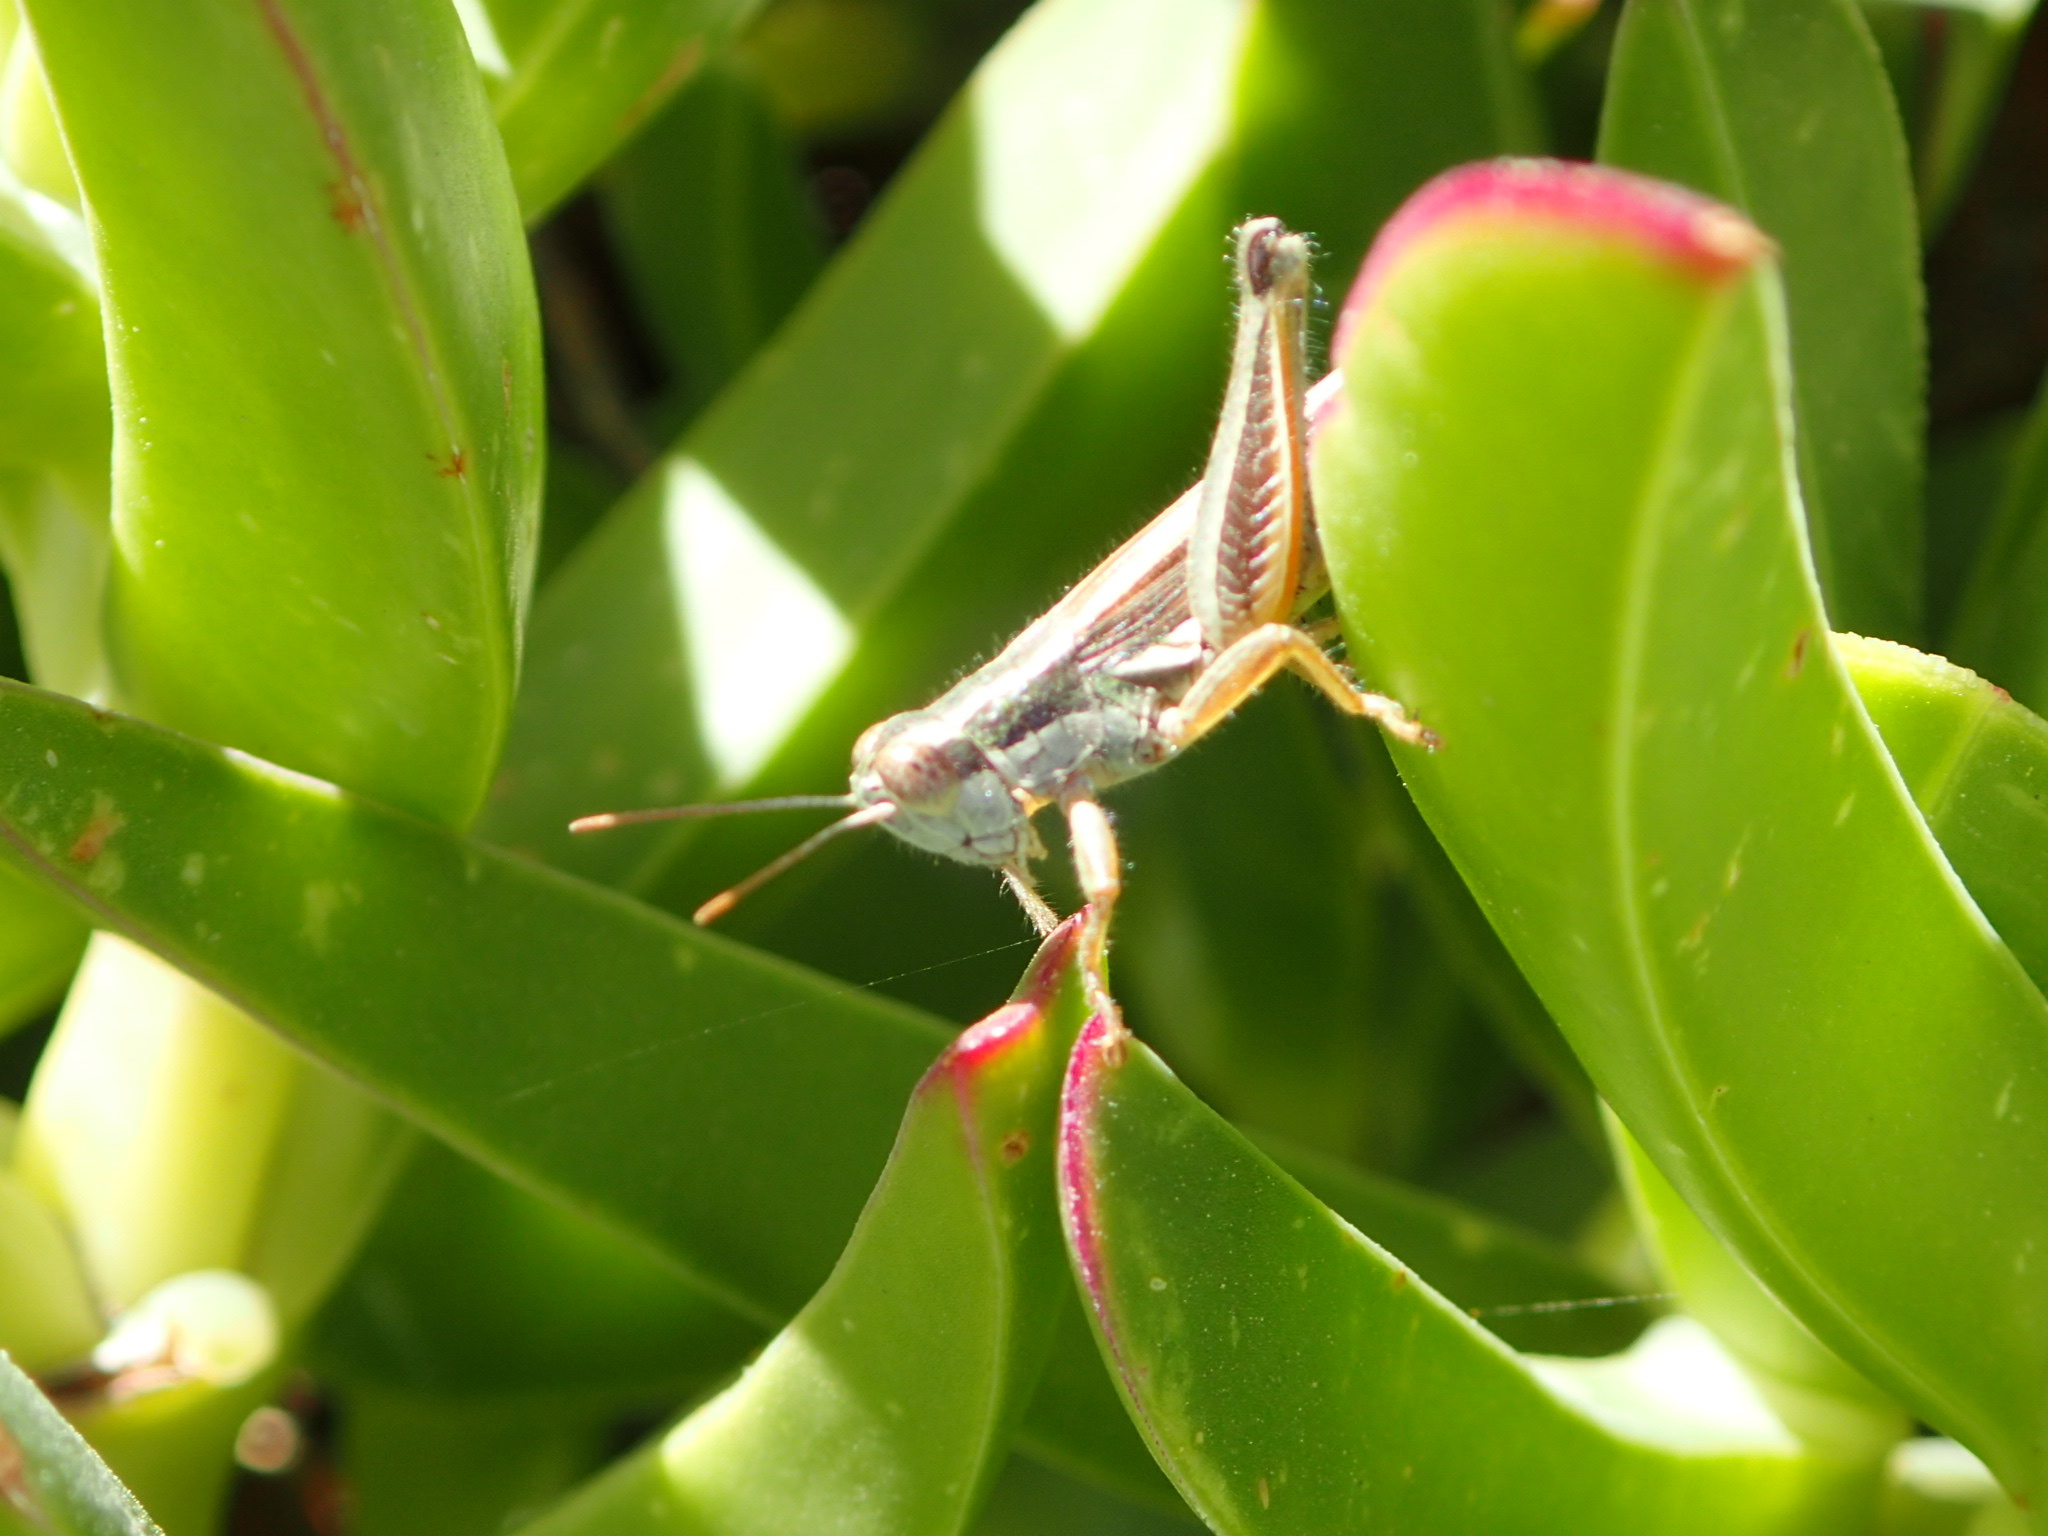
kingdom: Animalia
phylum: Arthropoda
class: Insecta
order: Orthoptera
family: Acrididae
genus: Dichroplus
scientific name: Dichroplus elongatus
